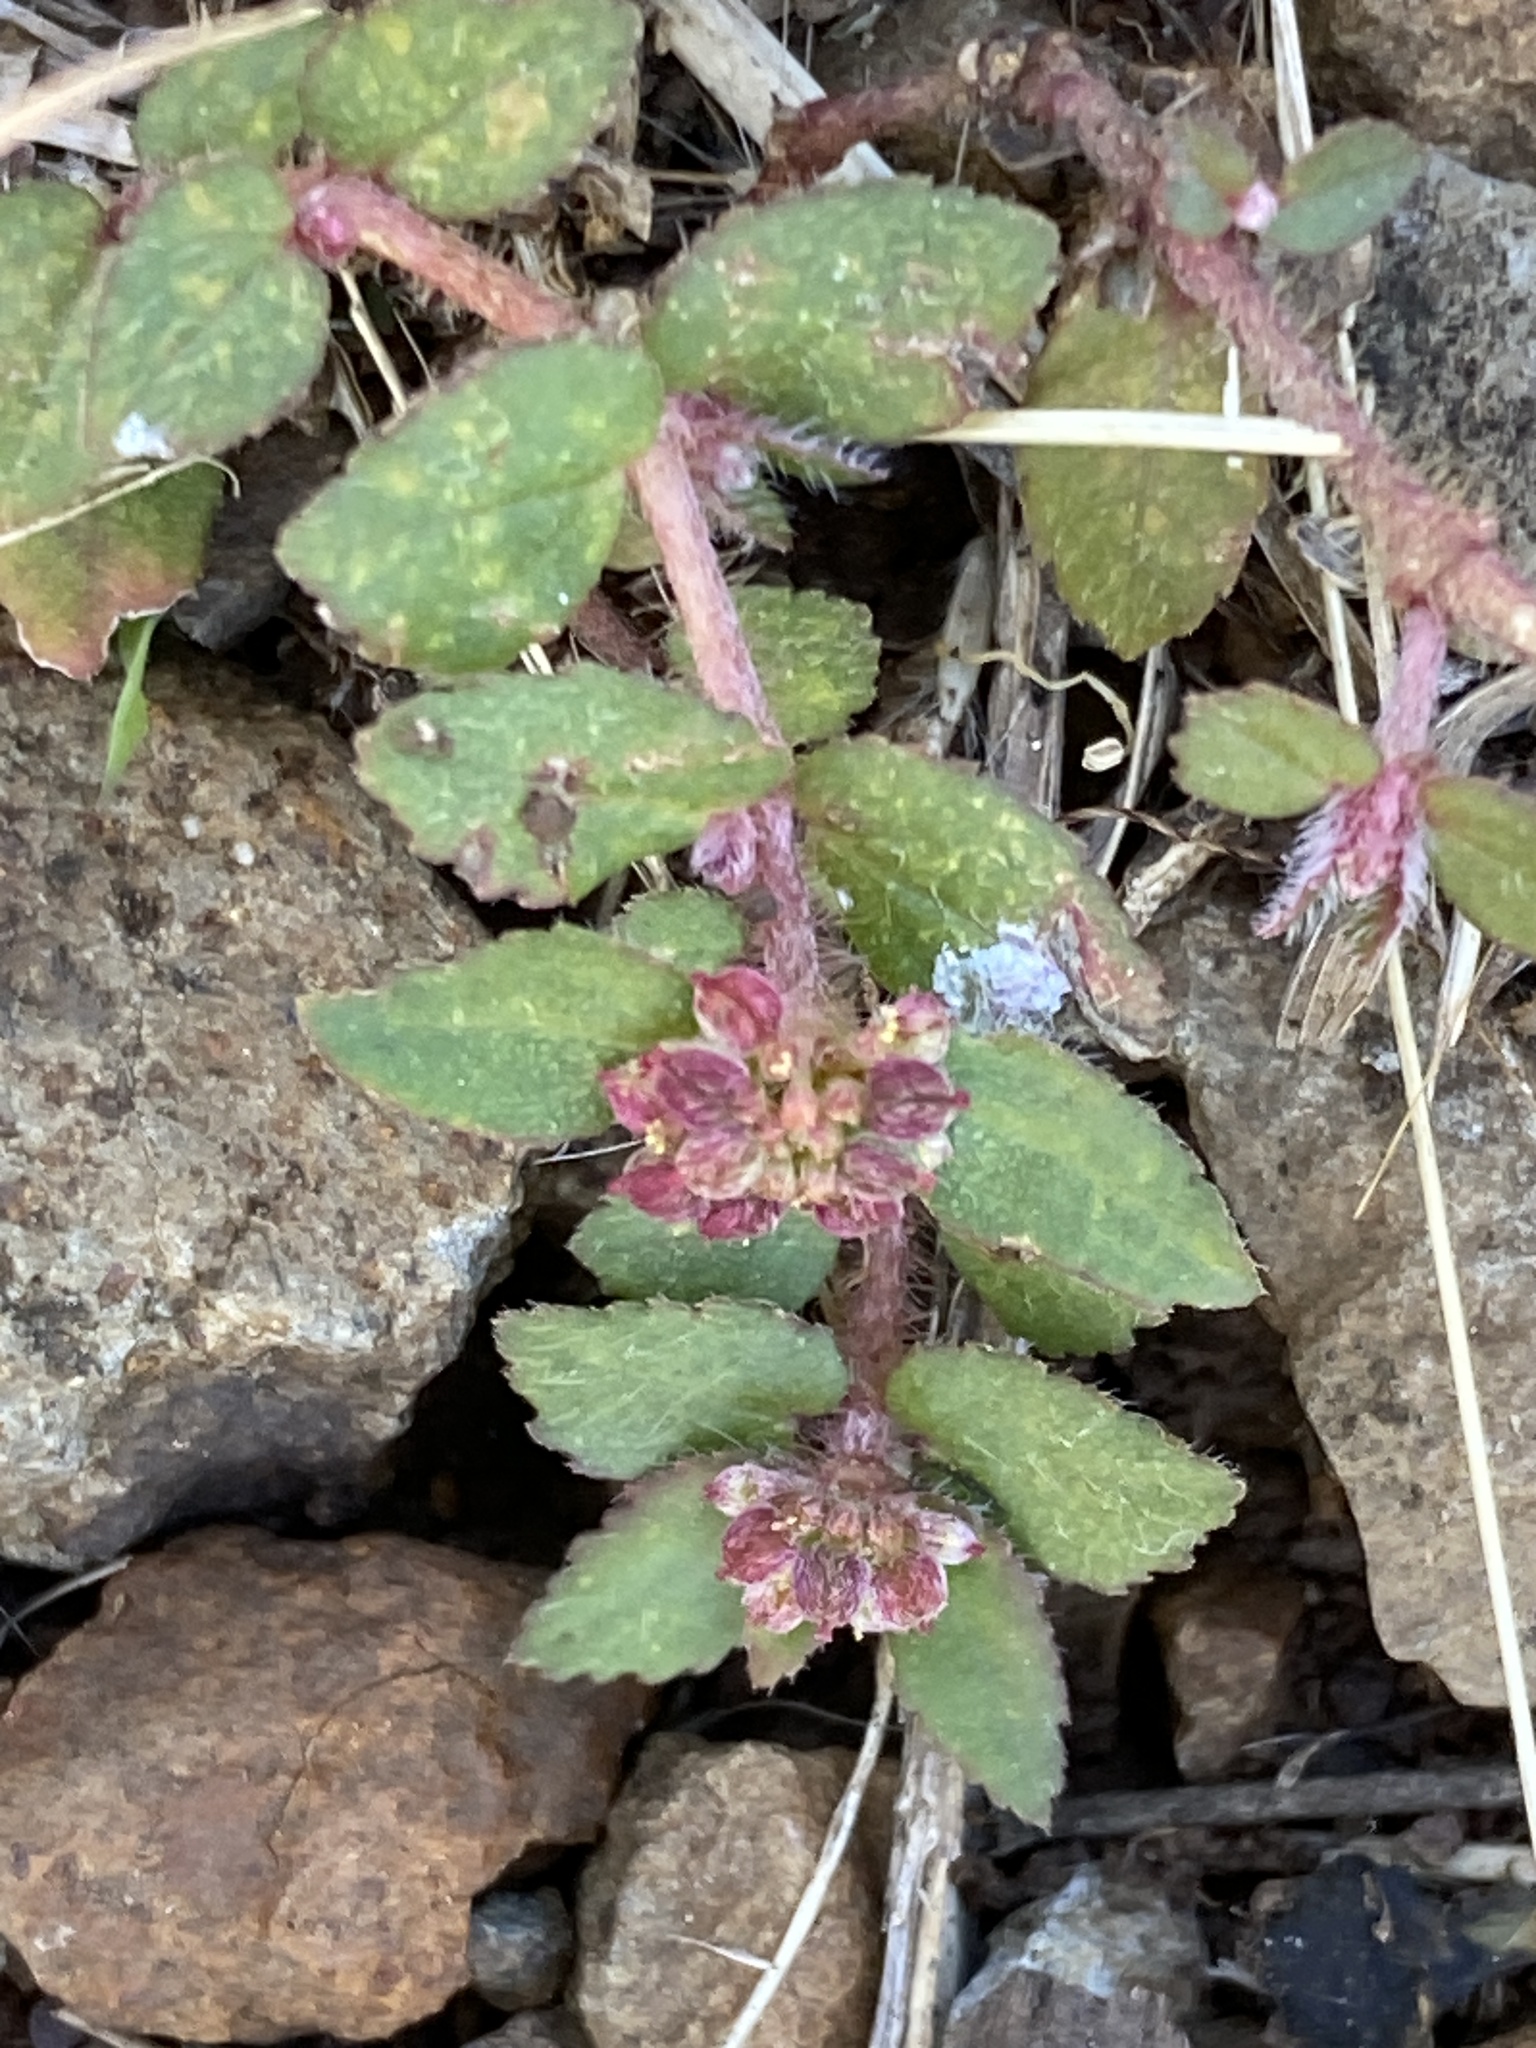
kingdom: Plantae
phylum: Tracheophyta
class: Magnoliopsida
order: Malpighiales
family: Euphorbiaceae
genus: Euphorbia
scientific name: Euphorbia ophthalmica
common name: Florida hammock sandmat
